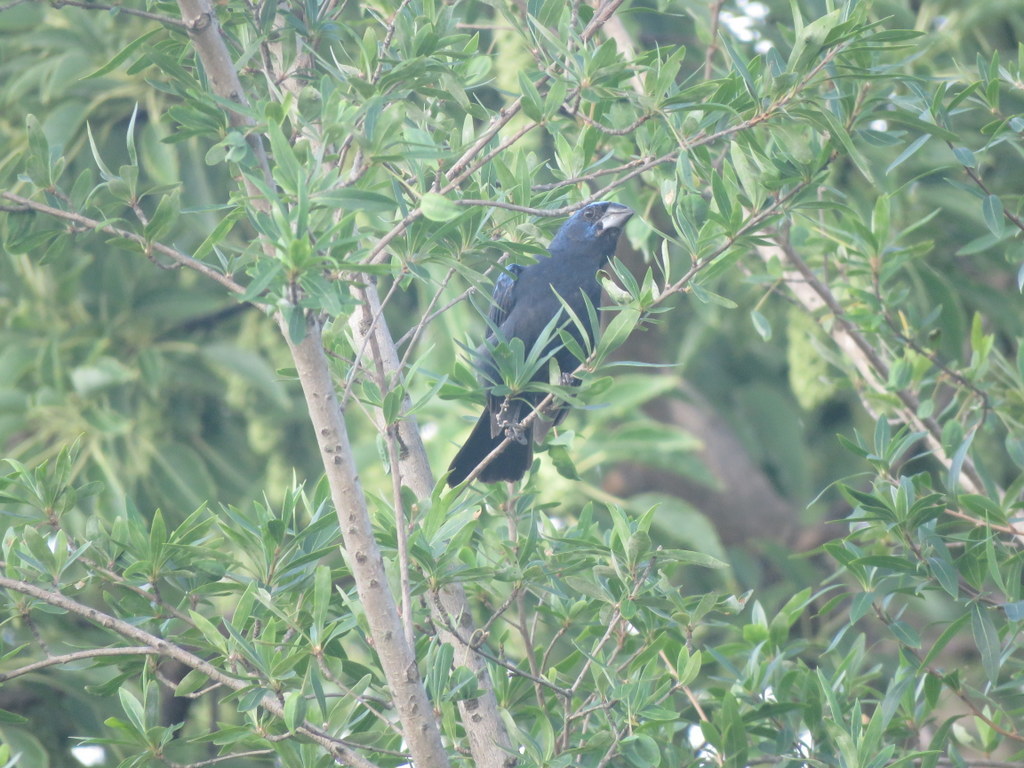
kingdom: Animalia
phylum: Chordata
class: Aves
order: Passeriformes
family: Cardinalidae
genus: Cyanoloxia
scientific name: Cyanoloxia brissonii
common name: Ultramarine grosbeak
